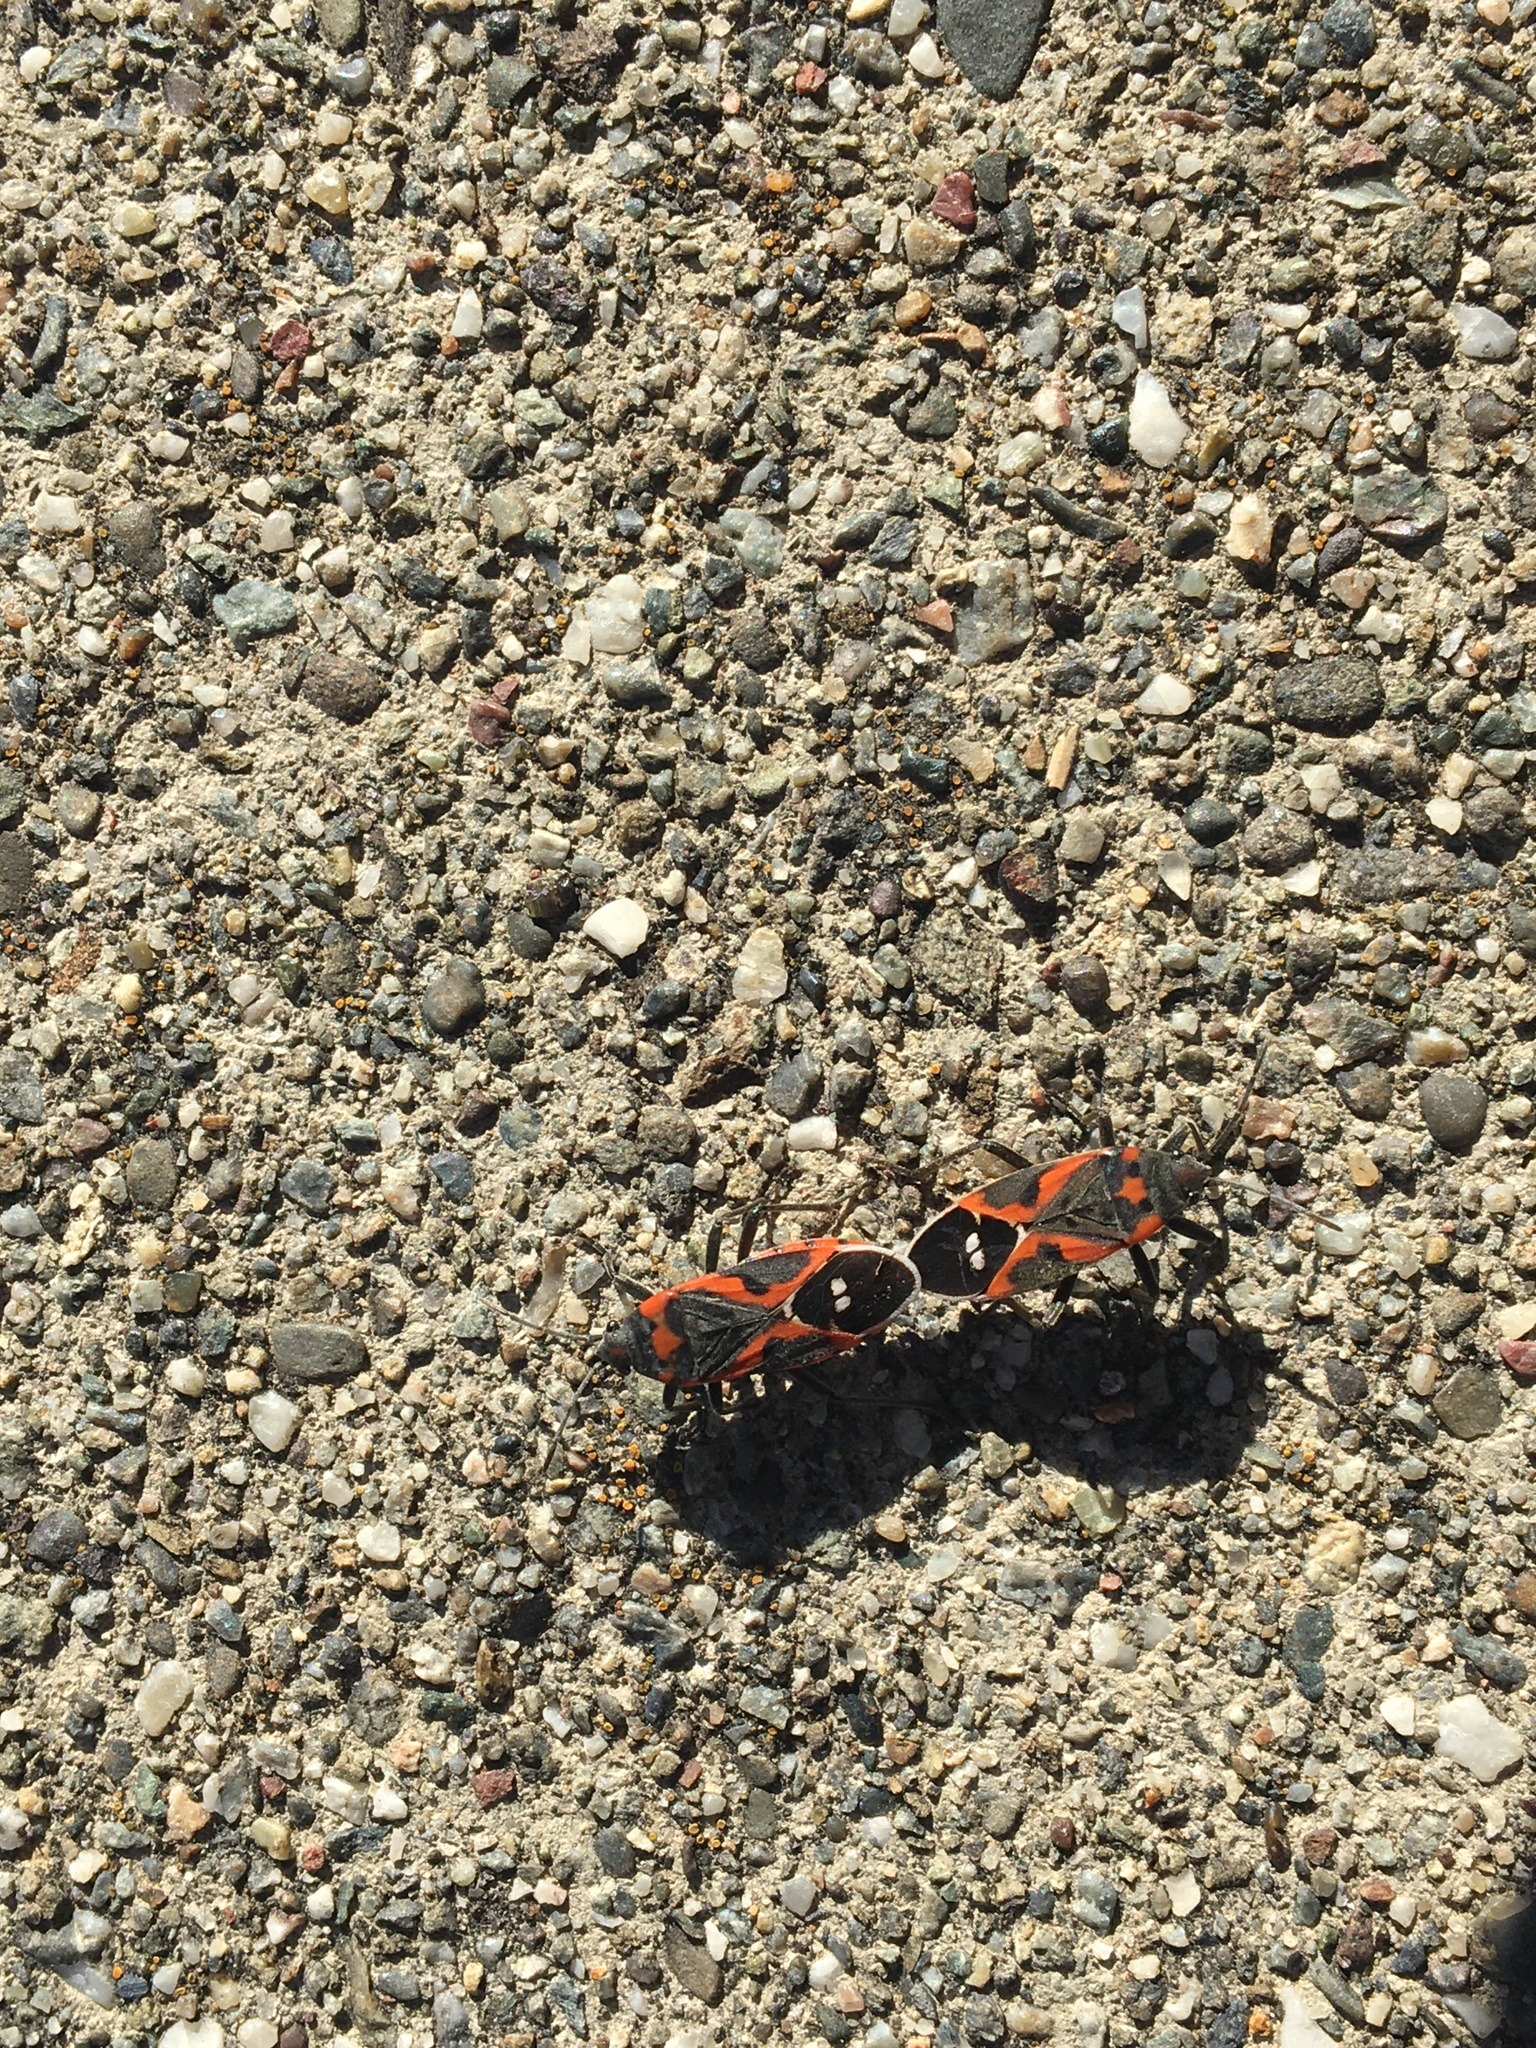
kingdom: Animalia
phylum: Arthropoda
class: Insecta
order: Hemiptera
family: Lygaeidae
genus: Lygaeus
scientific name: Lygaeus kalmii
